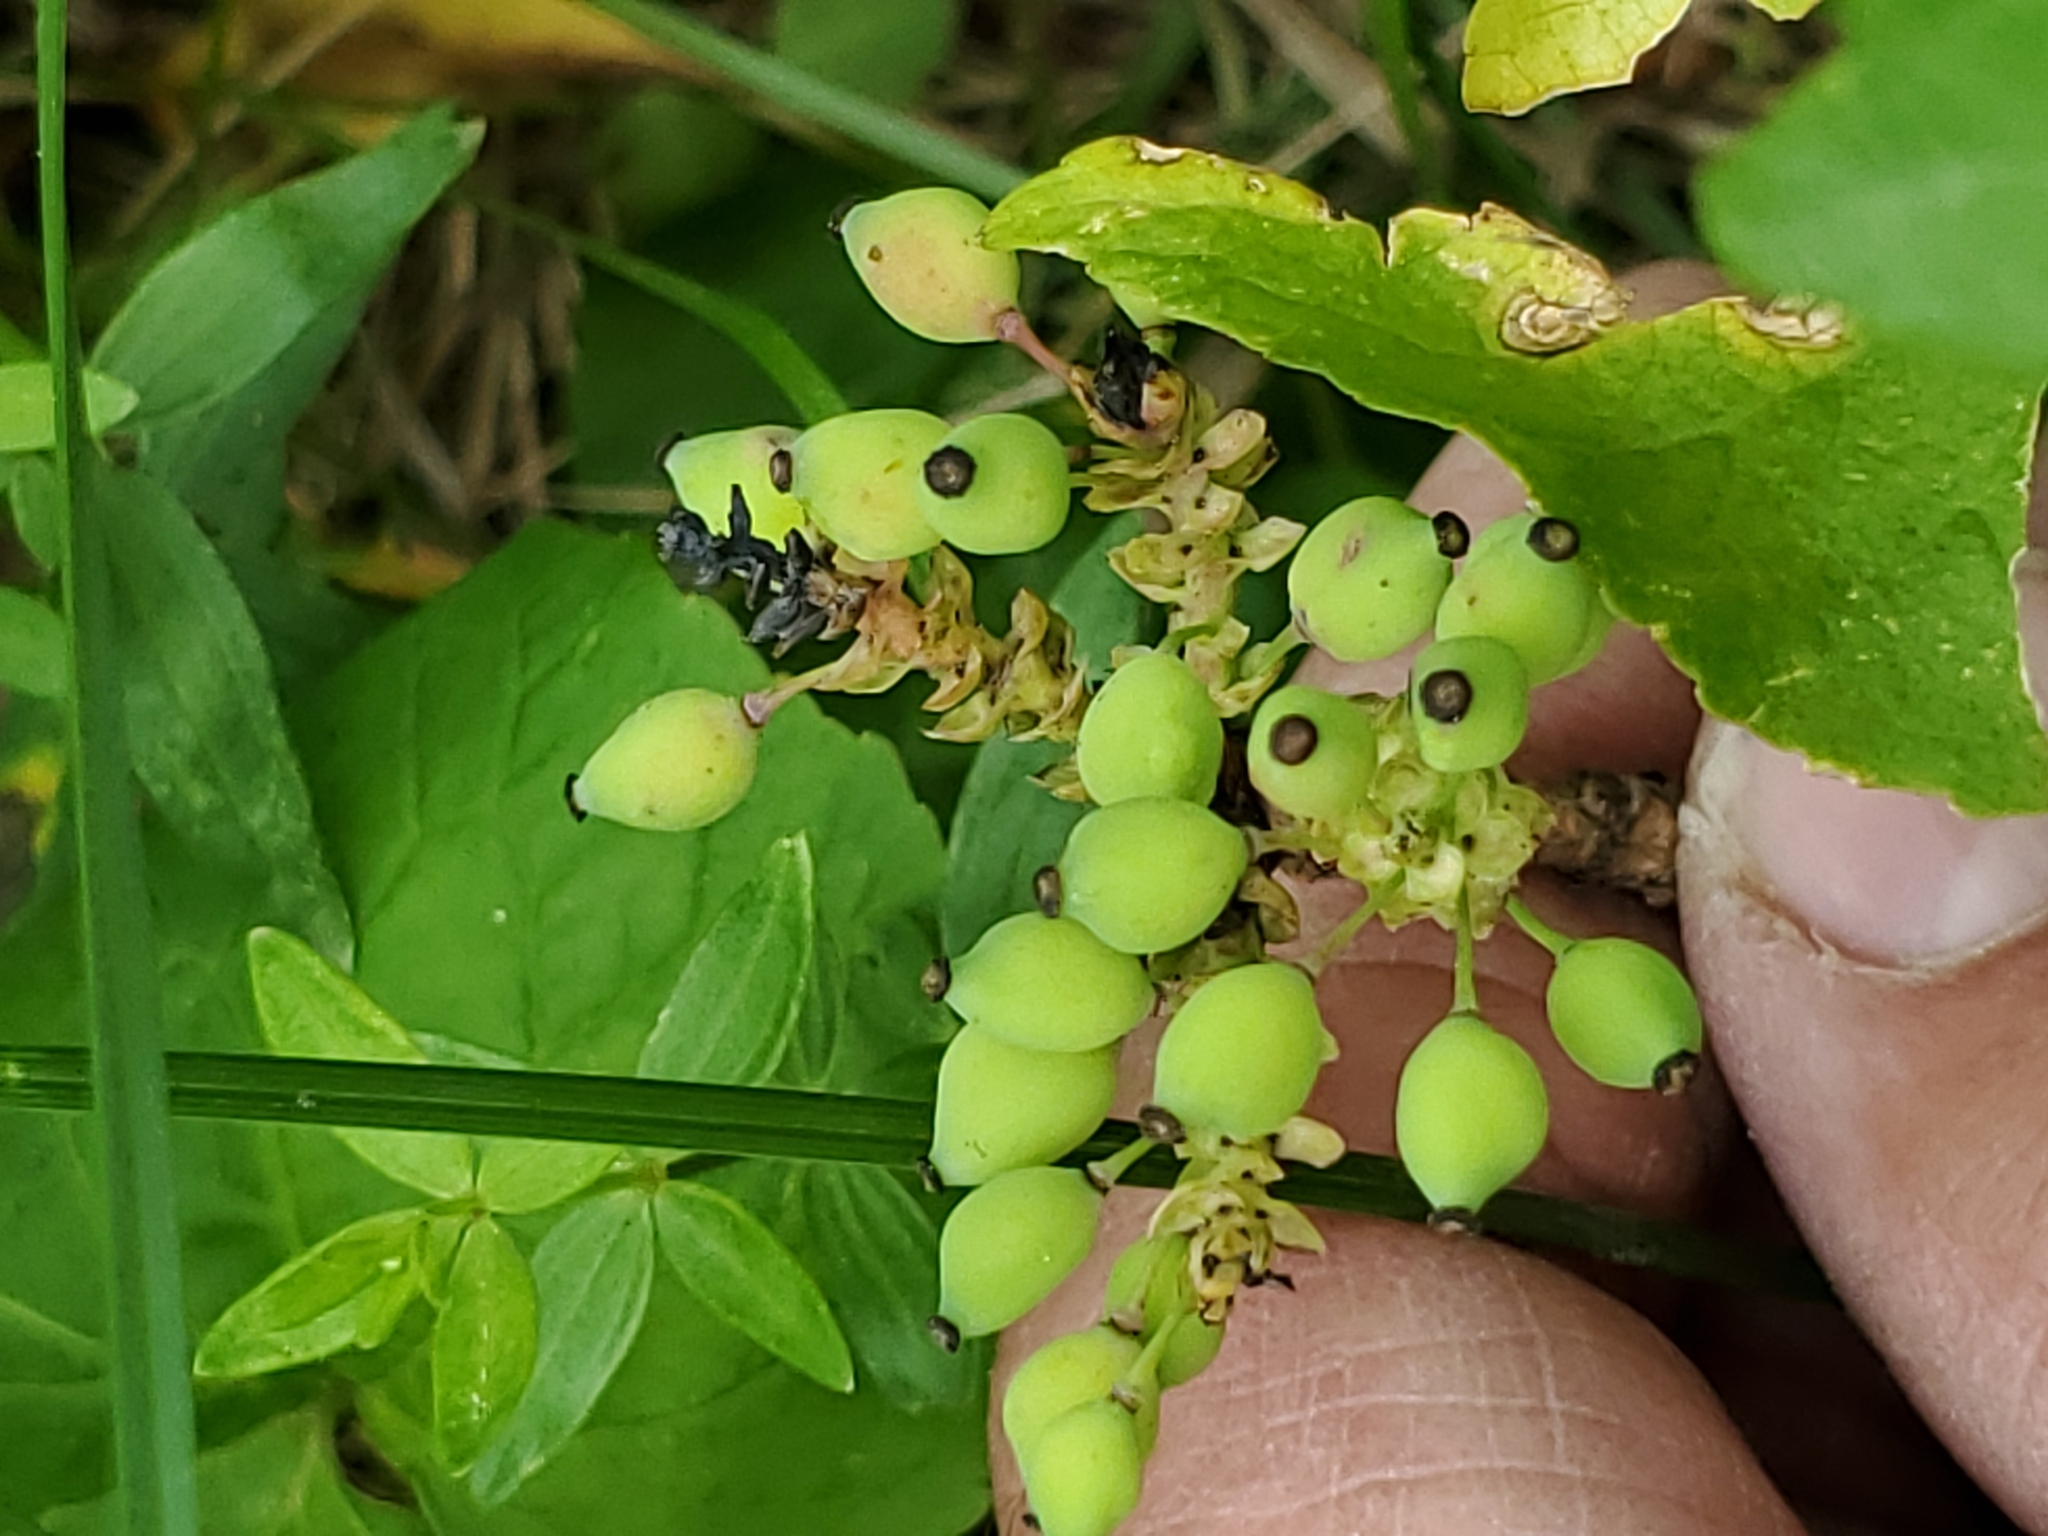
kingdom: Plantae
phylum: Tracheophyta
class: Magnoliopsida
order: Ranunculales
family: Berberidaceae
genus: Mahonia
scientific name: Mahonia repens
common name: Creeping oregon-grape
